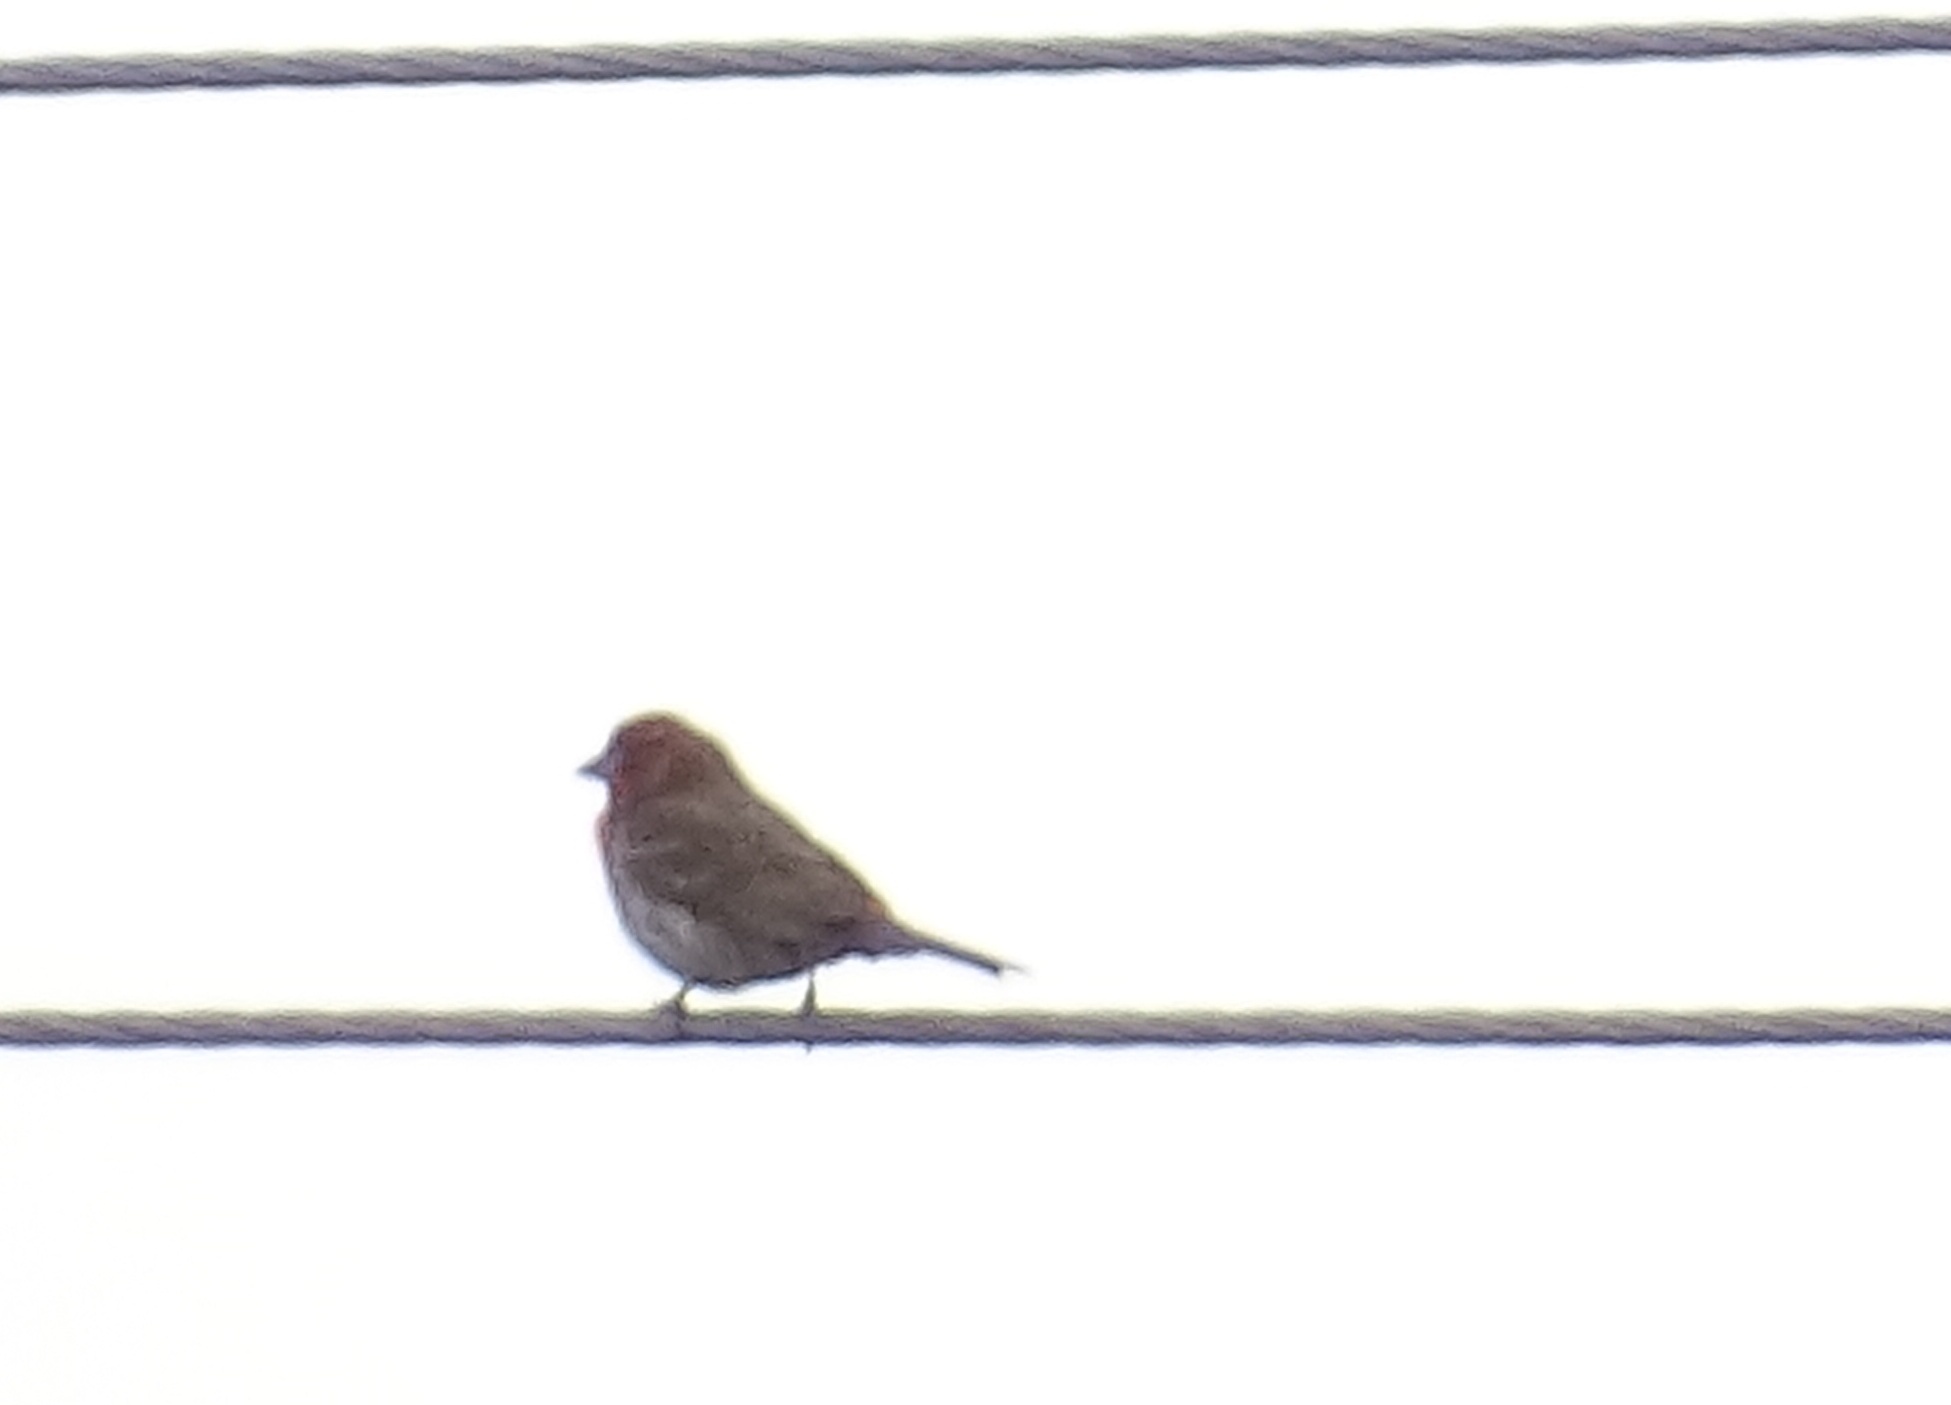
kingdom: Animalia
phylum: Chordata
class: Aves
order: Passeriformes
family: Fringillidae
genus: Haemorhous
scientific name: Haemorhous mexicanus
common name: House finch
